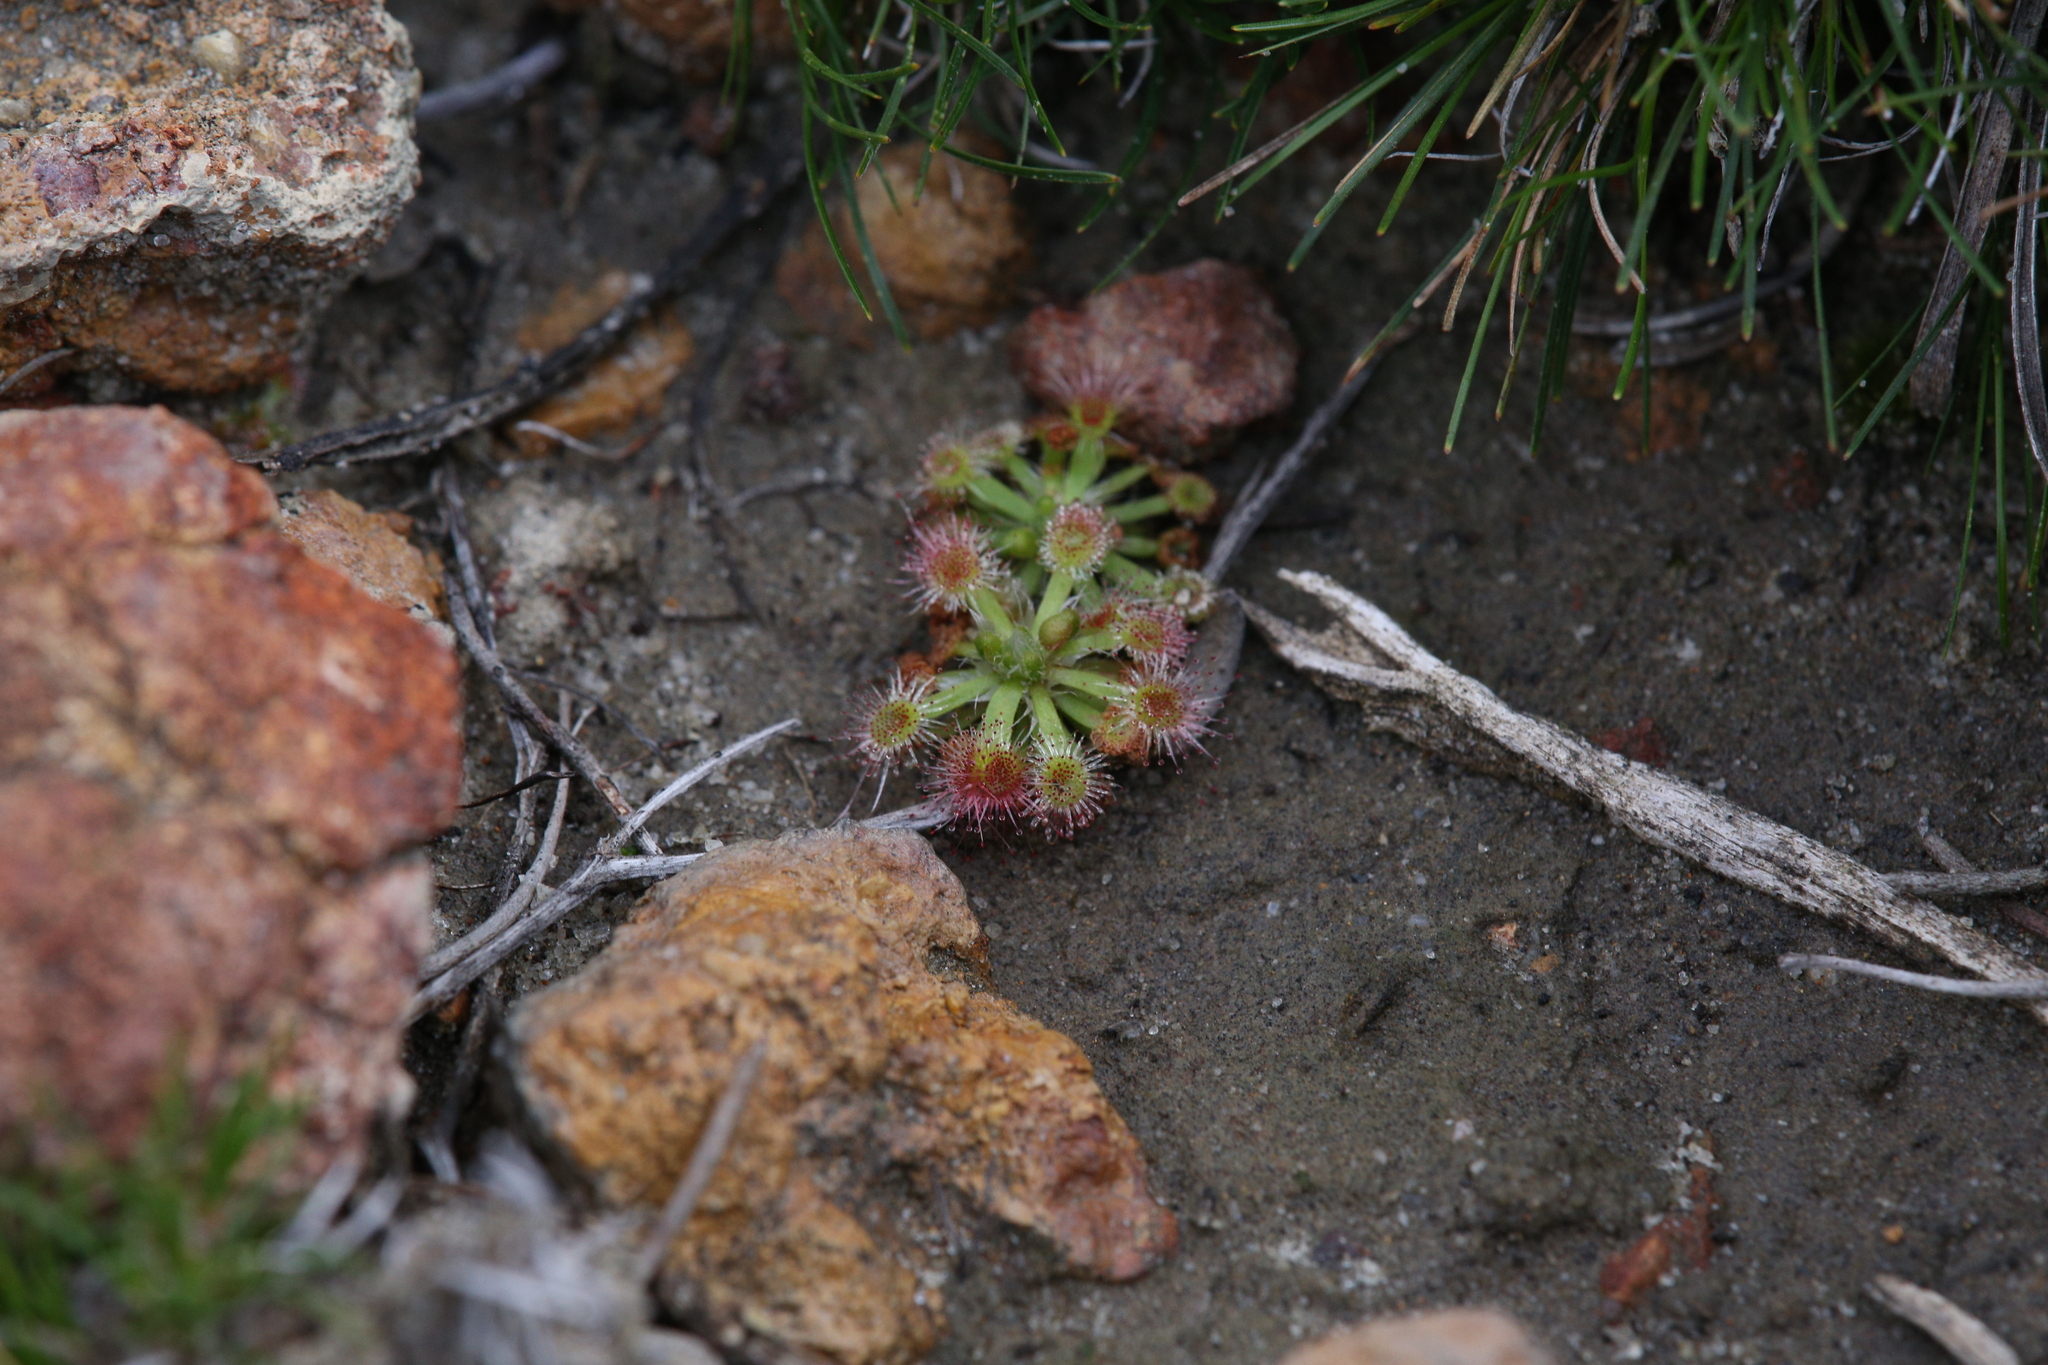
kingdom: Plantae
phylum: Tracheophyta
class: Magnoliopsida
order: Caryophyllales
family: Droseraceae
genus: Drosera
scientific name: Drosera spilos
